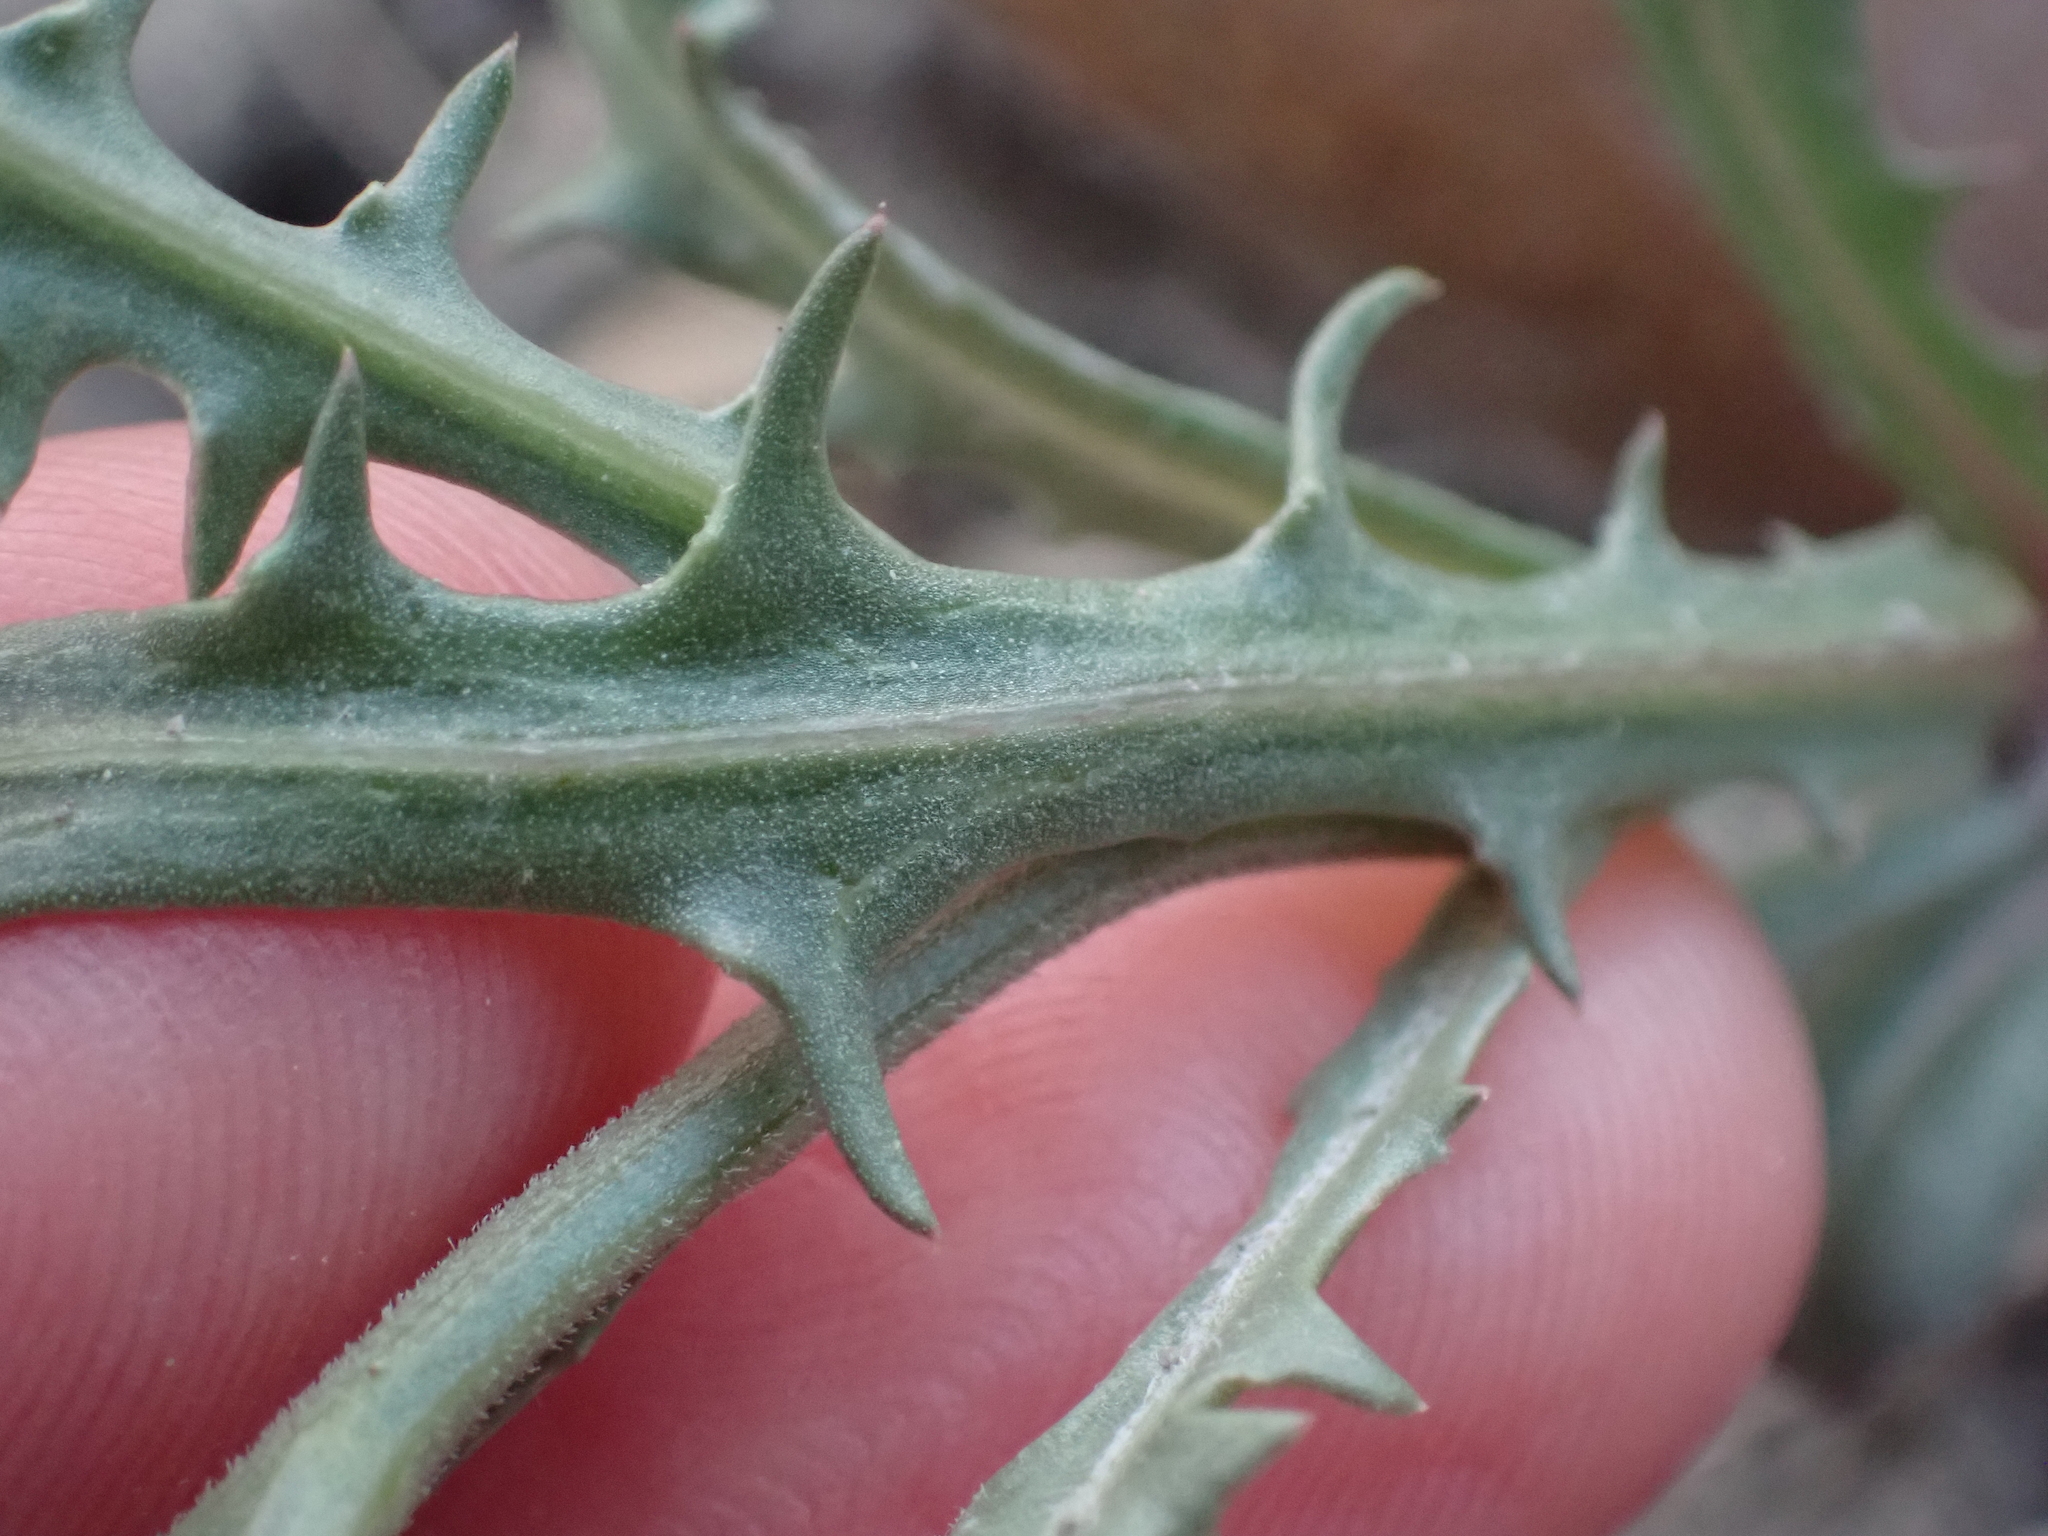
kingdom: Plantae
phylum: Tracheophyta
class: Magnoliopsida
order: Asterales
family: Asteraceae
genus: Stephanomeria
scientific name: Stephanomeria runcinata
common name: Desert wirelettuce
